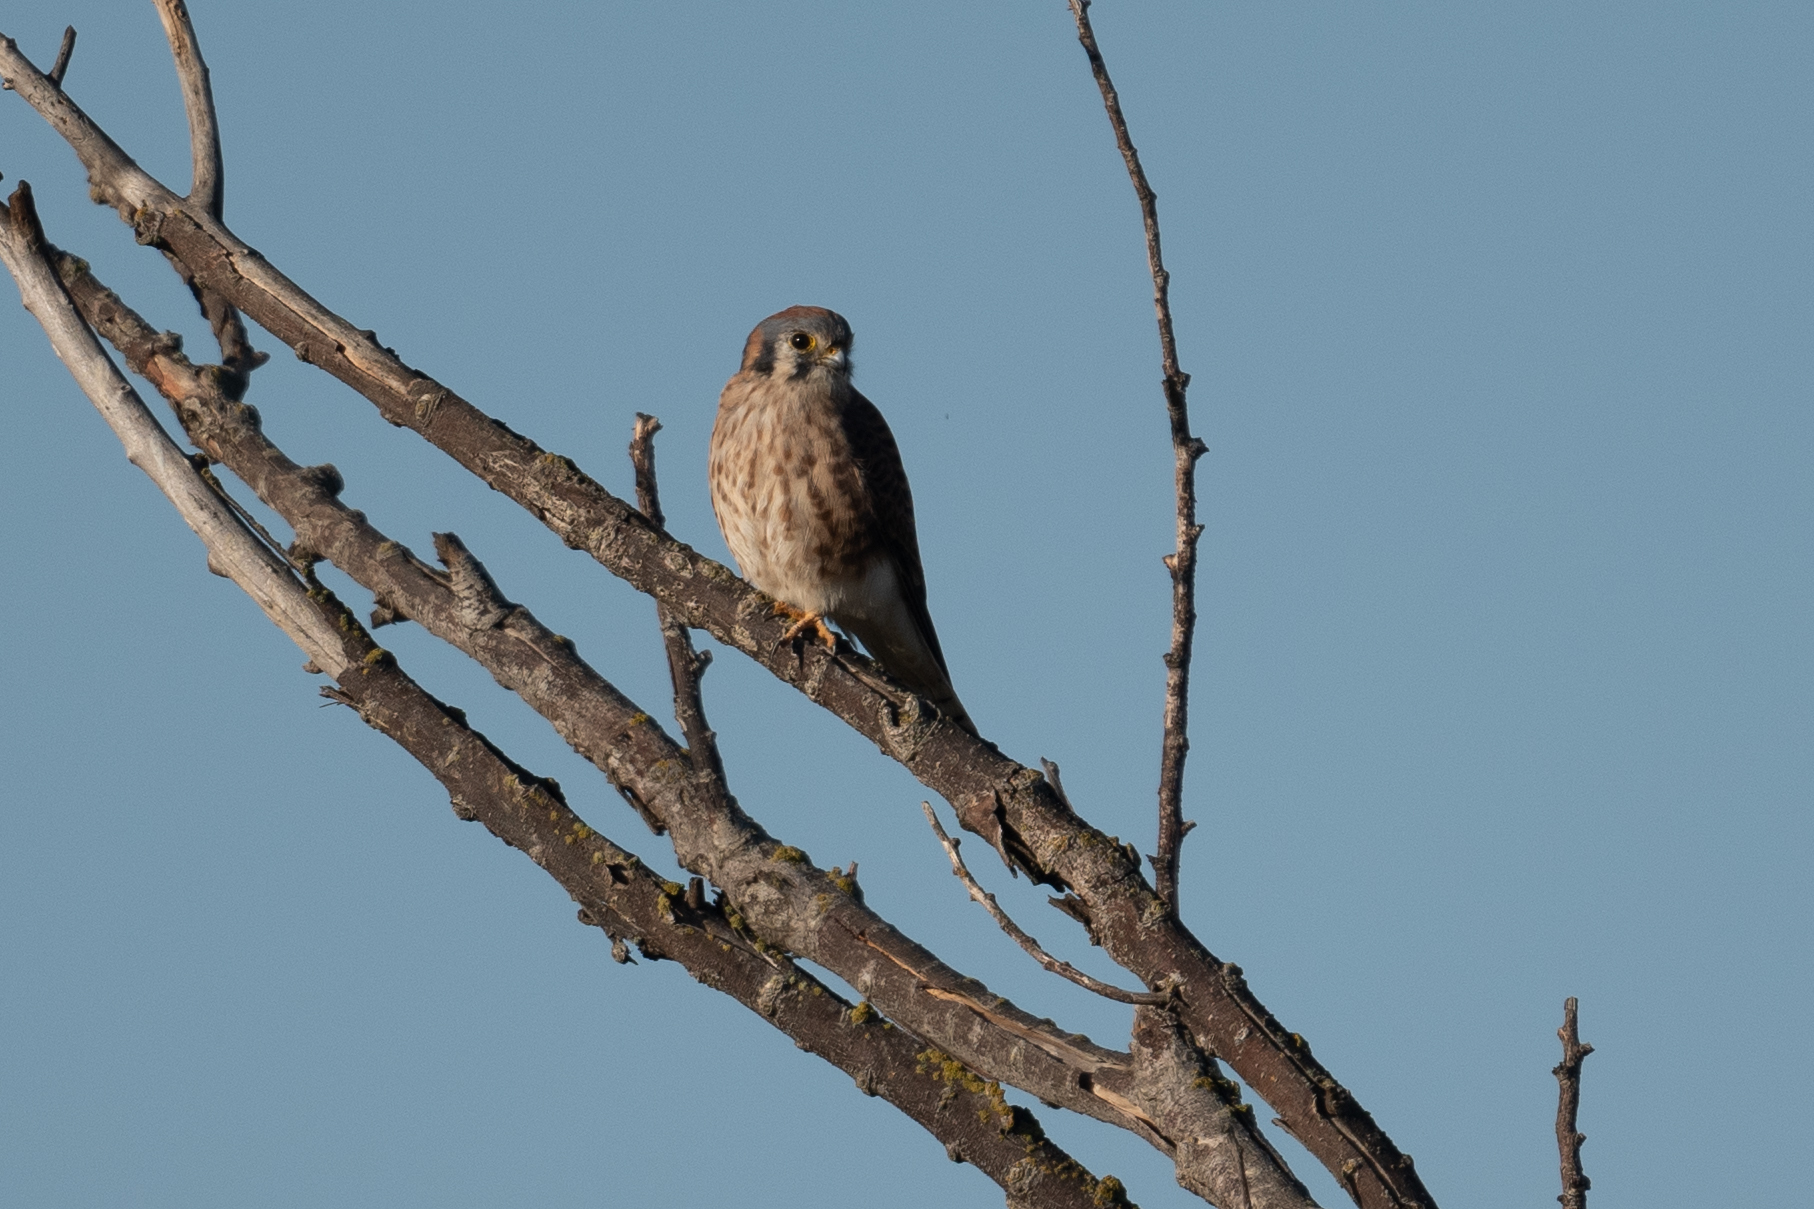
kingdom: Animalia
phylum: Chordata
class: Aves
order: Falconiformes
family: Falconidae
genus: Falco
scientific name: Falco sparverius
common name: American kestrel
